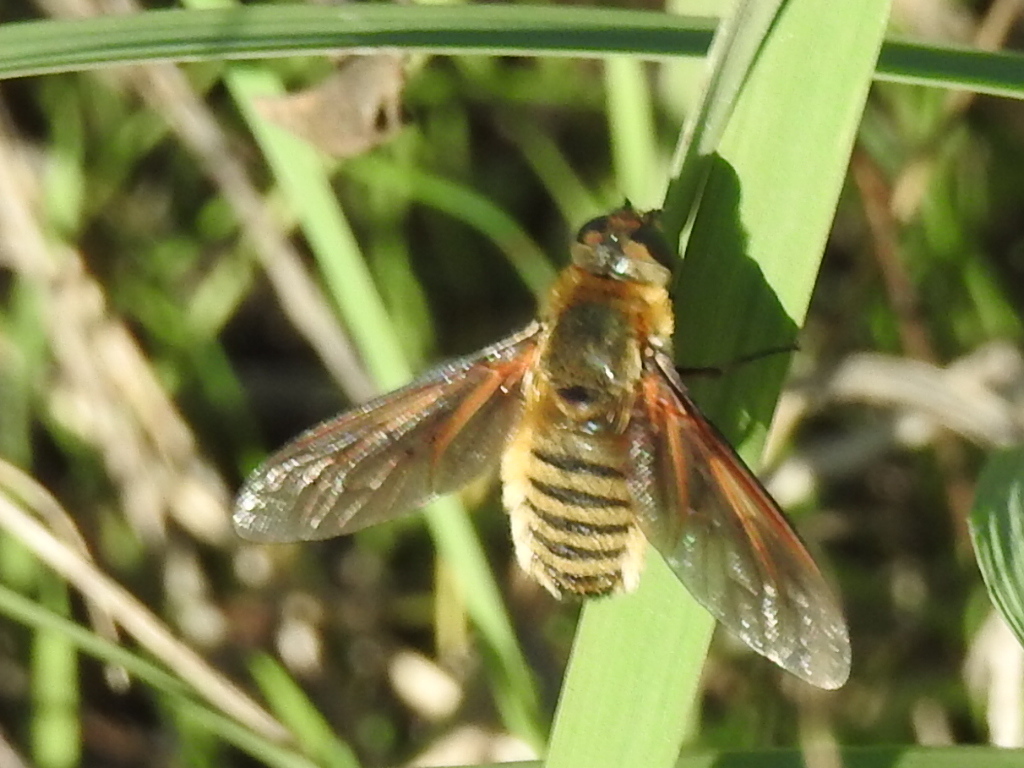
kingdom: Animalia
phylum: Arthropoda
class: Insecta
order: Diptera
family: Bombyliidae
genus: Poecilanthrax
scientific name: Poecilanthrax lucifer
